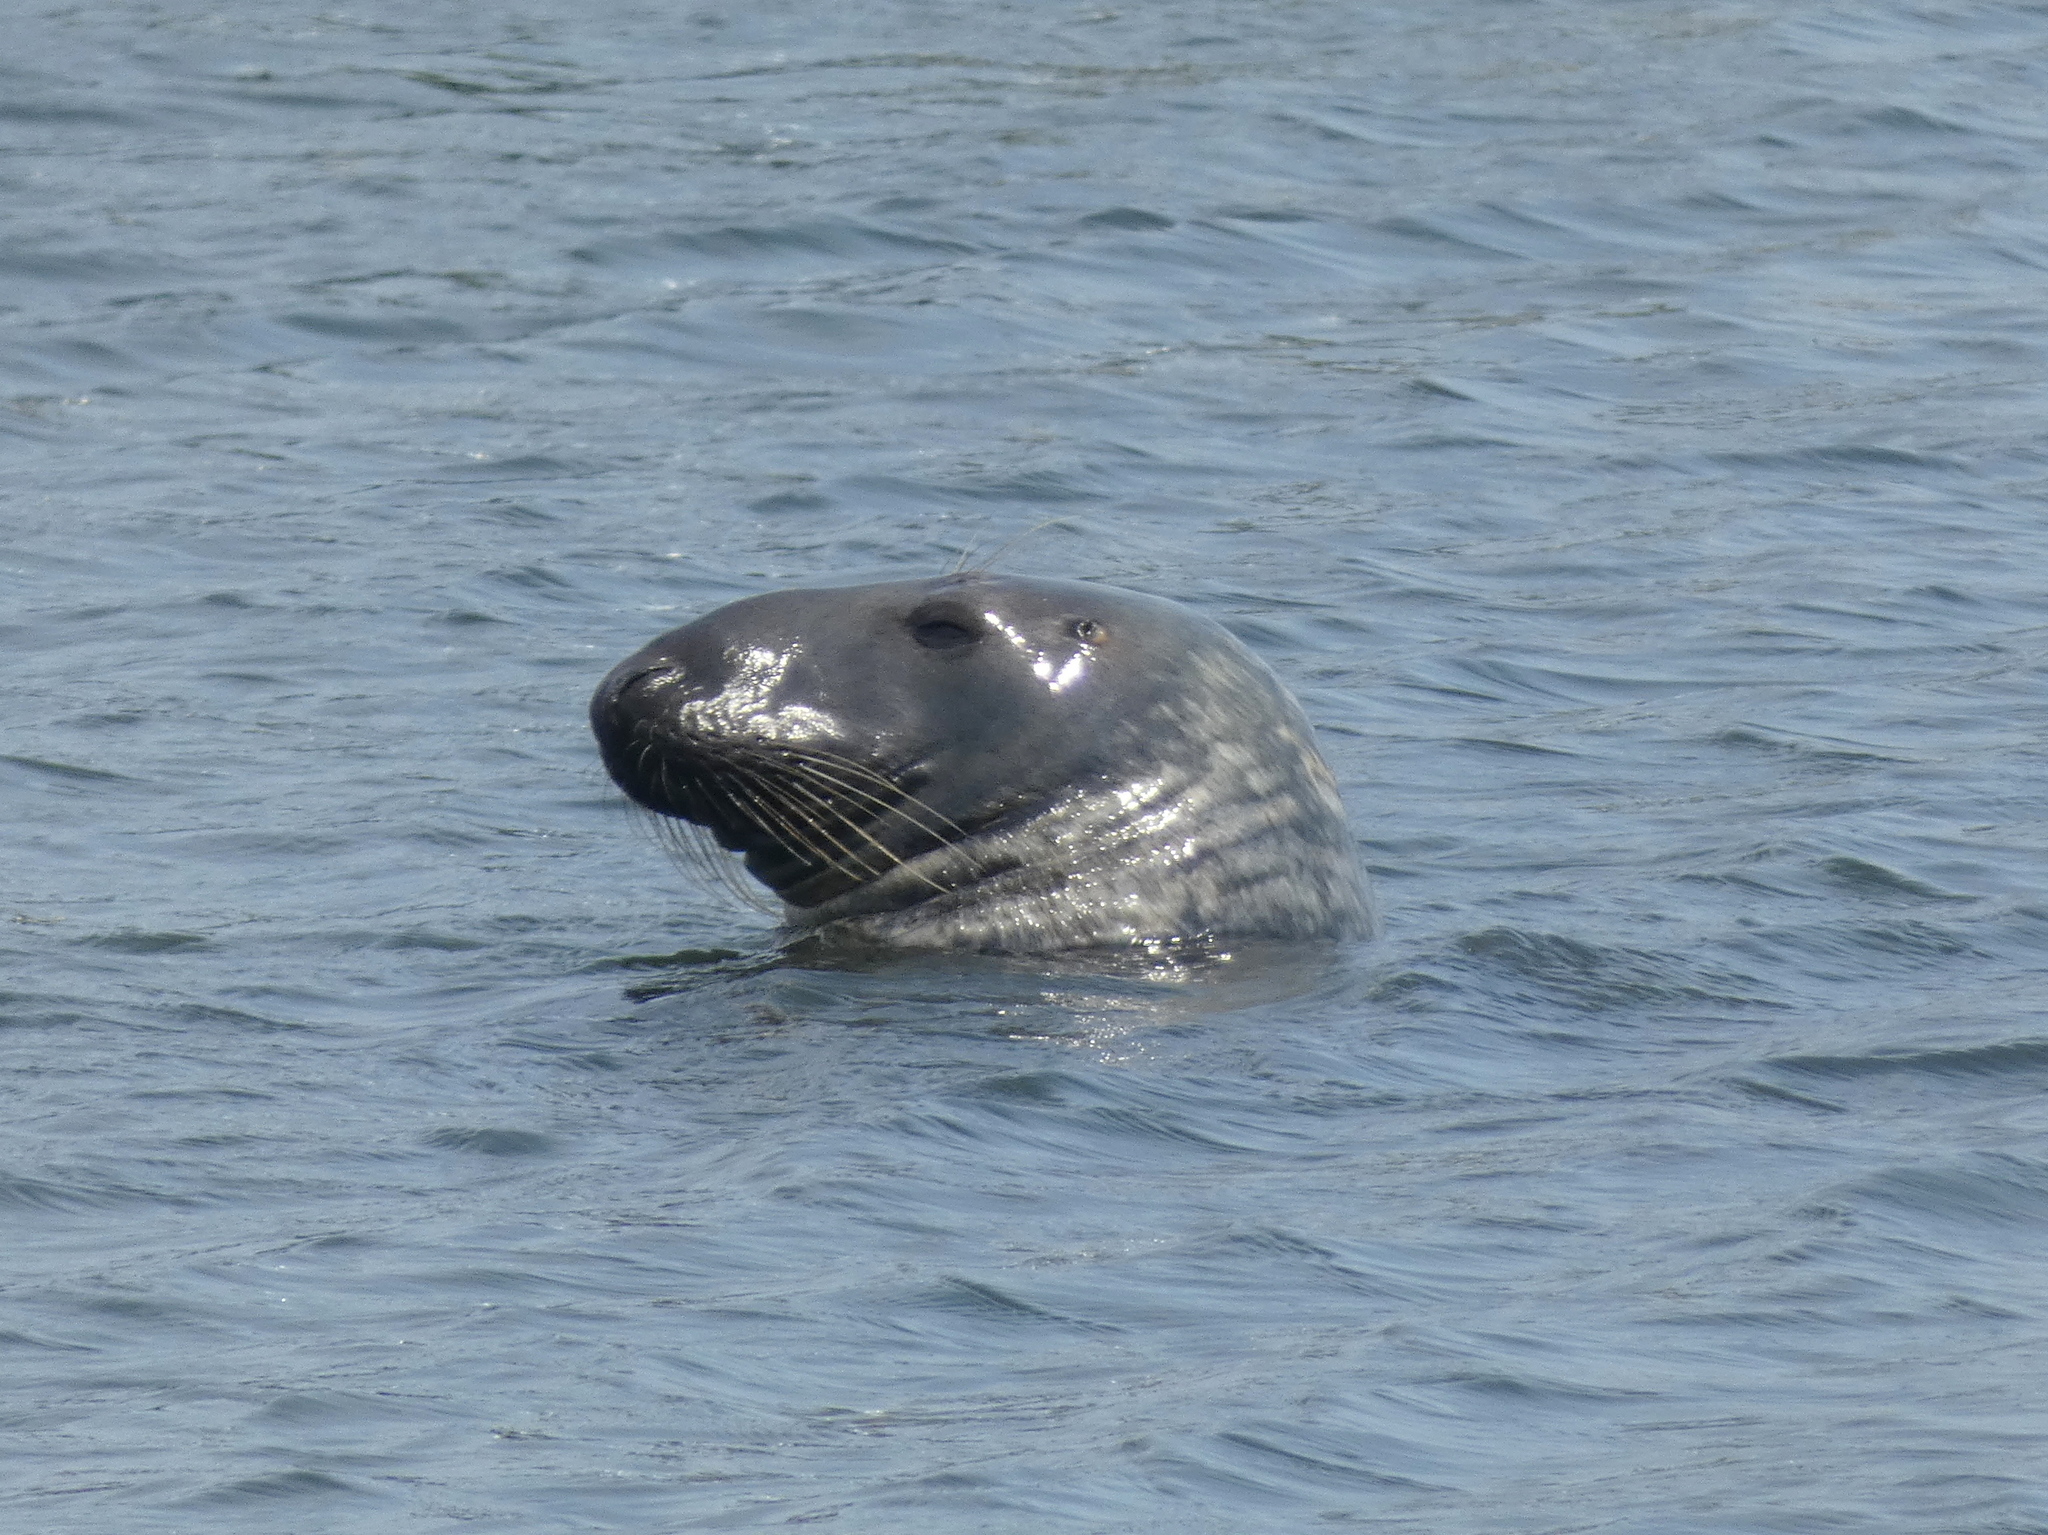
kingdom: Animalia
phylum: Chordata
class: Mammalia
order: Carnivora
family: Phocidae
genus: Halichoerus
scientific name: Halichoerus grypus
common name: Grey seal
